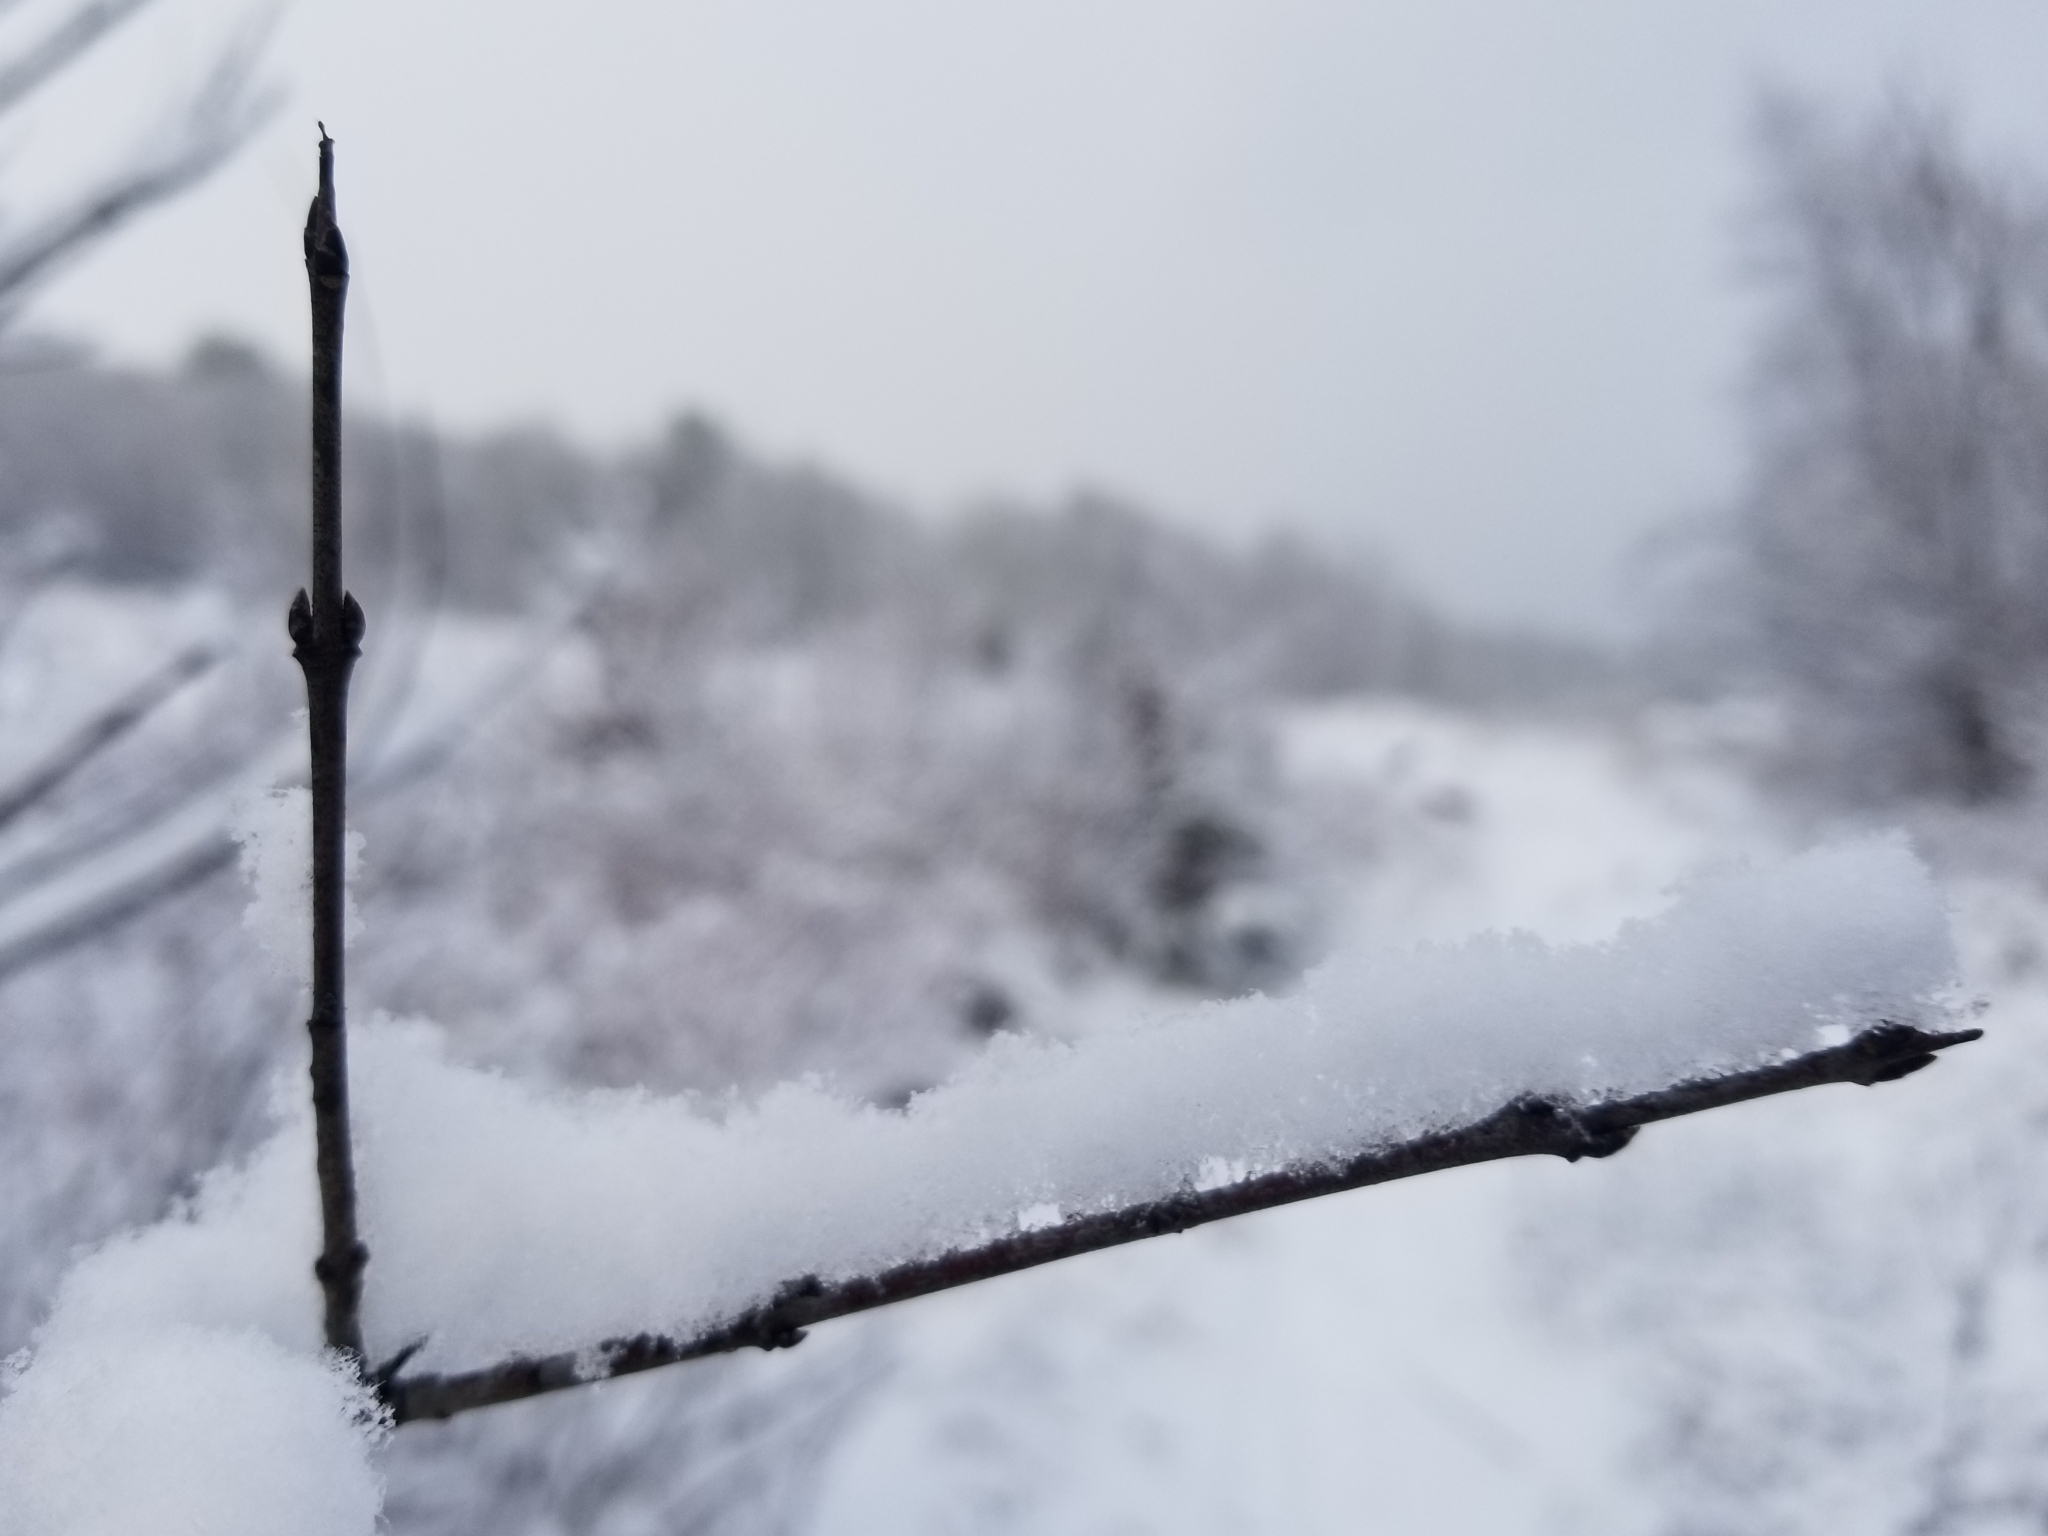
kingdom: Plantae
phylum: Tracheophyta
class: Magnoliopsida
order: Rosales
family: Rhamnaceae
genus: Rhamnus
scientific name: Rhamnus cathartica
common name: Common buckthorn
